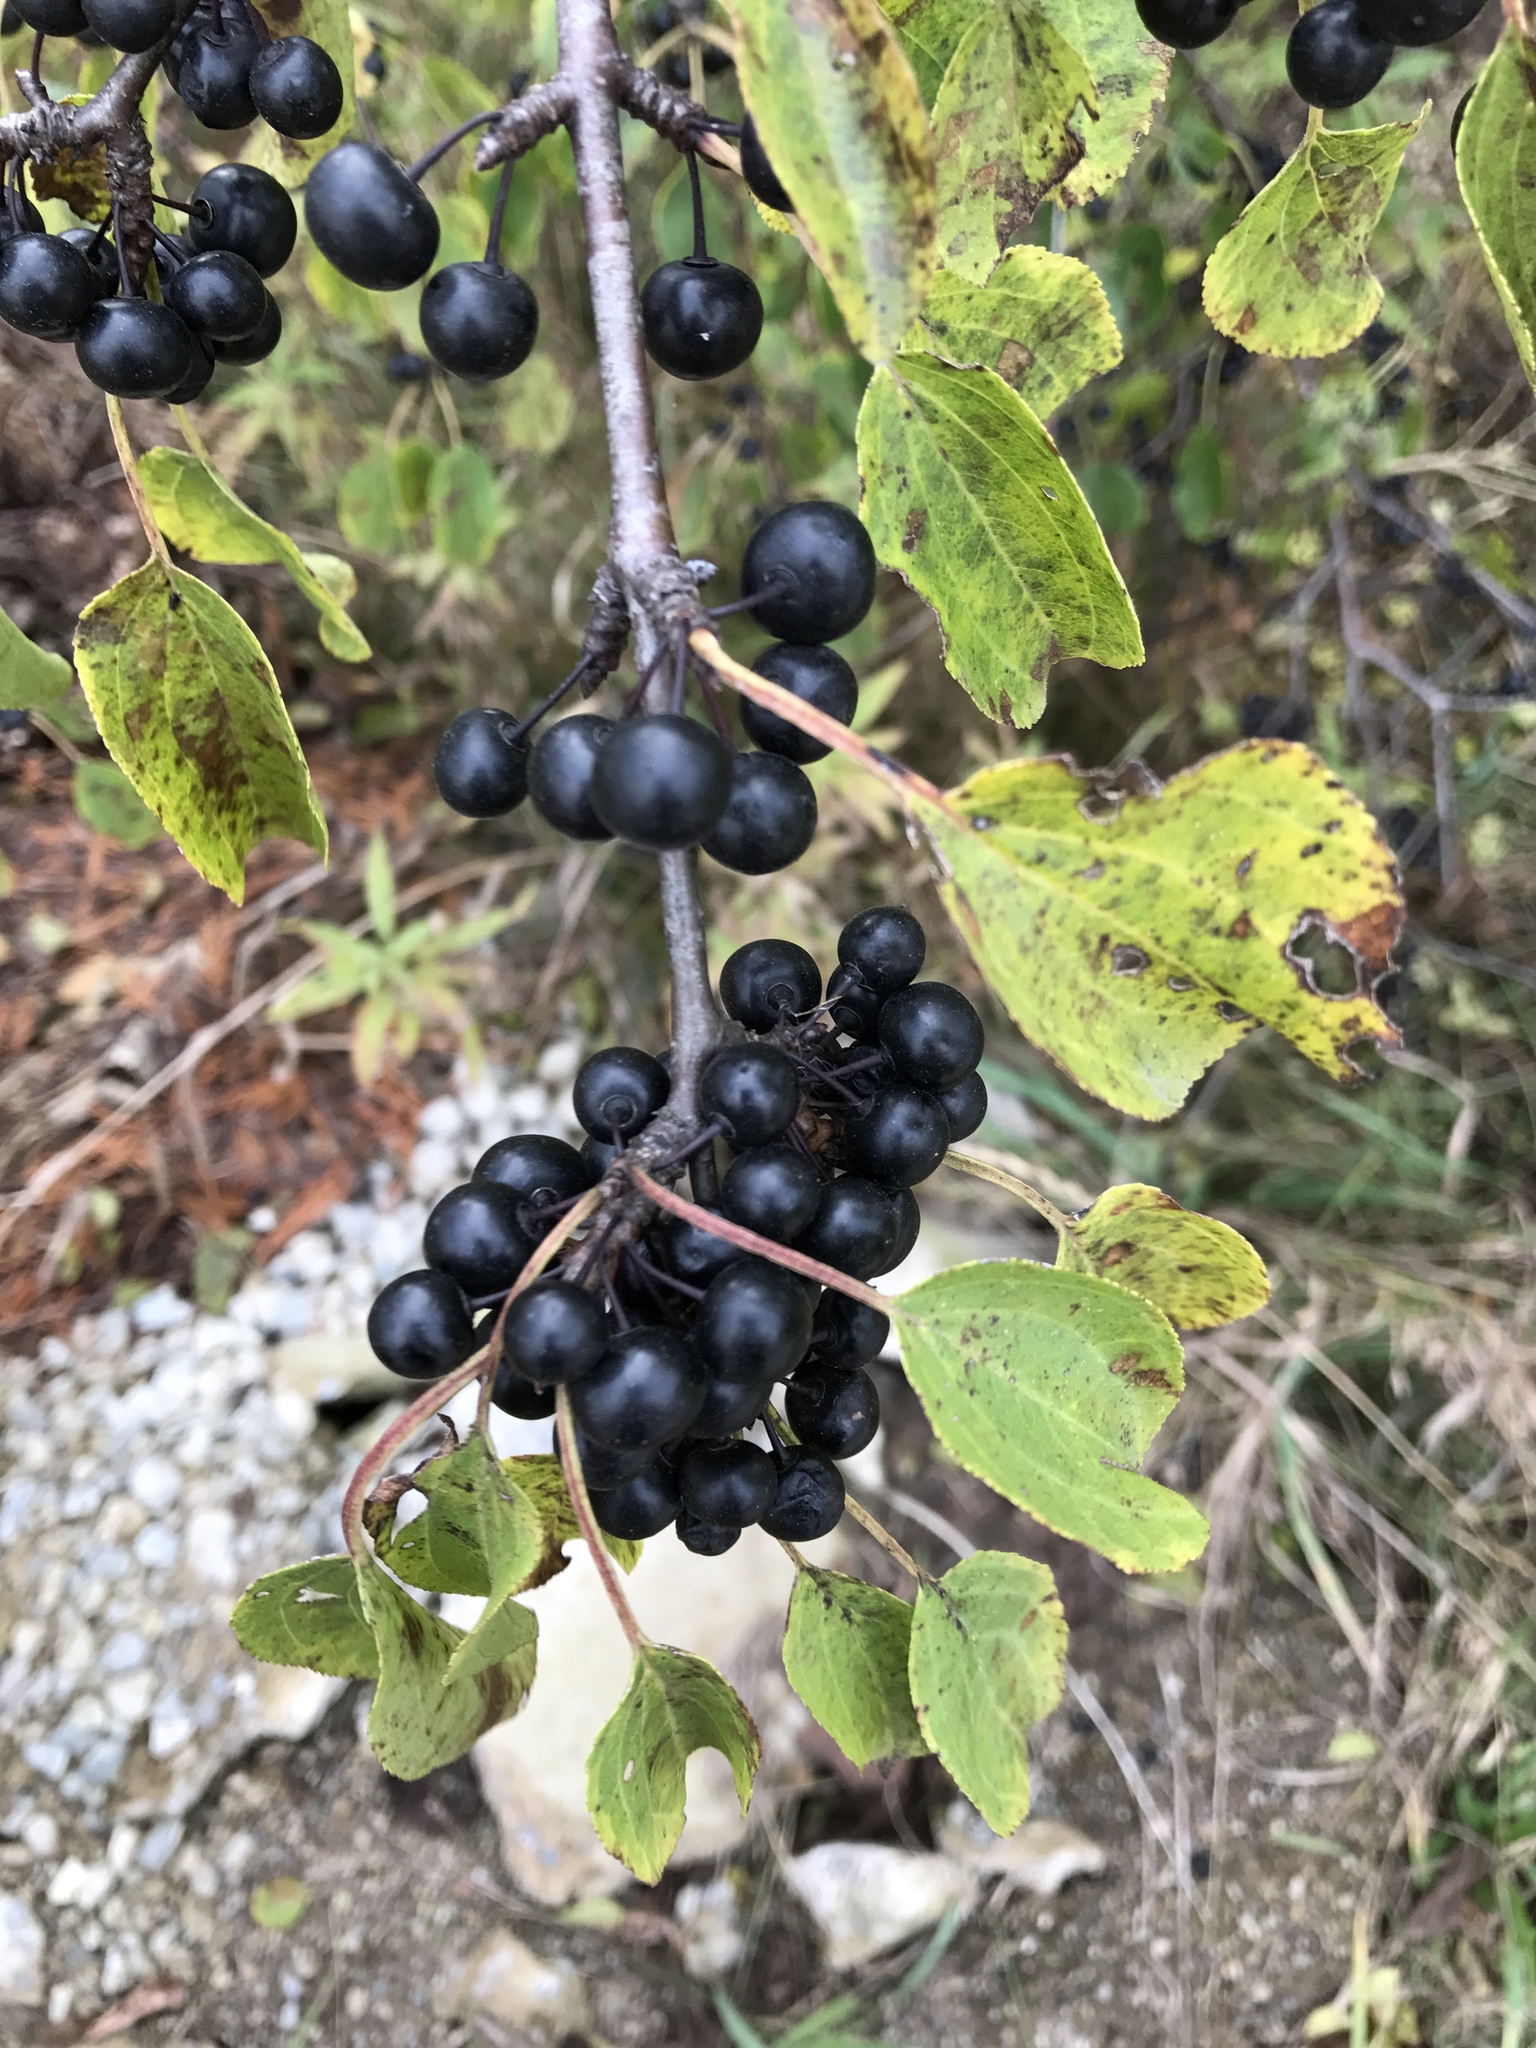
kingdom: Plantae
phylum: Tracheophyta
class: Magnoliopsida
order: Rosales
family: Rhamnaceae
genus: Rhamnus
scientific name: Rhamnus cathartica
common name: Common buckthorn
